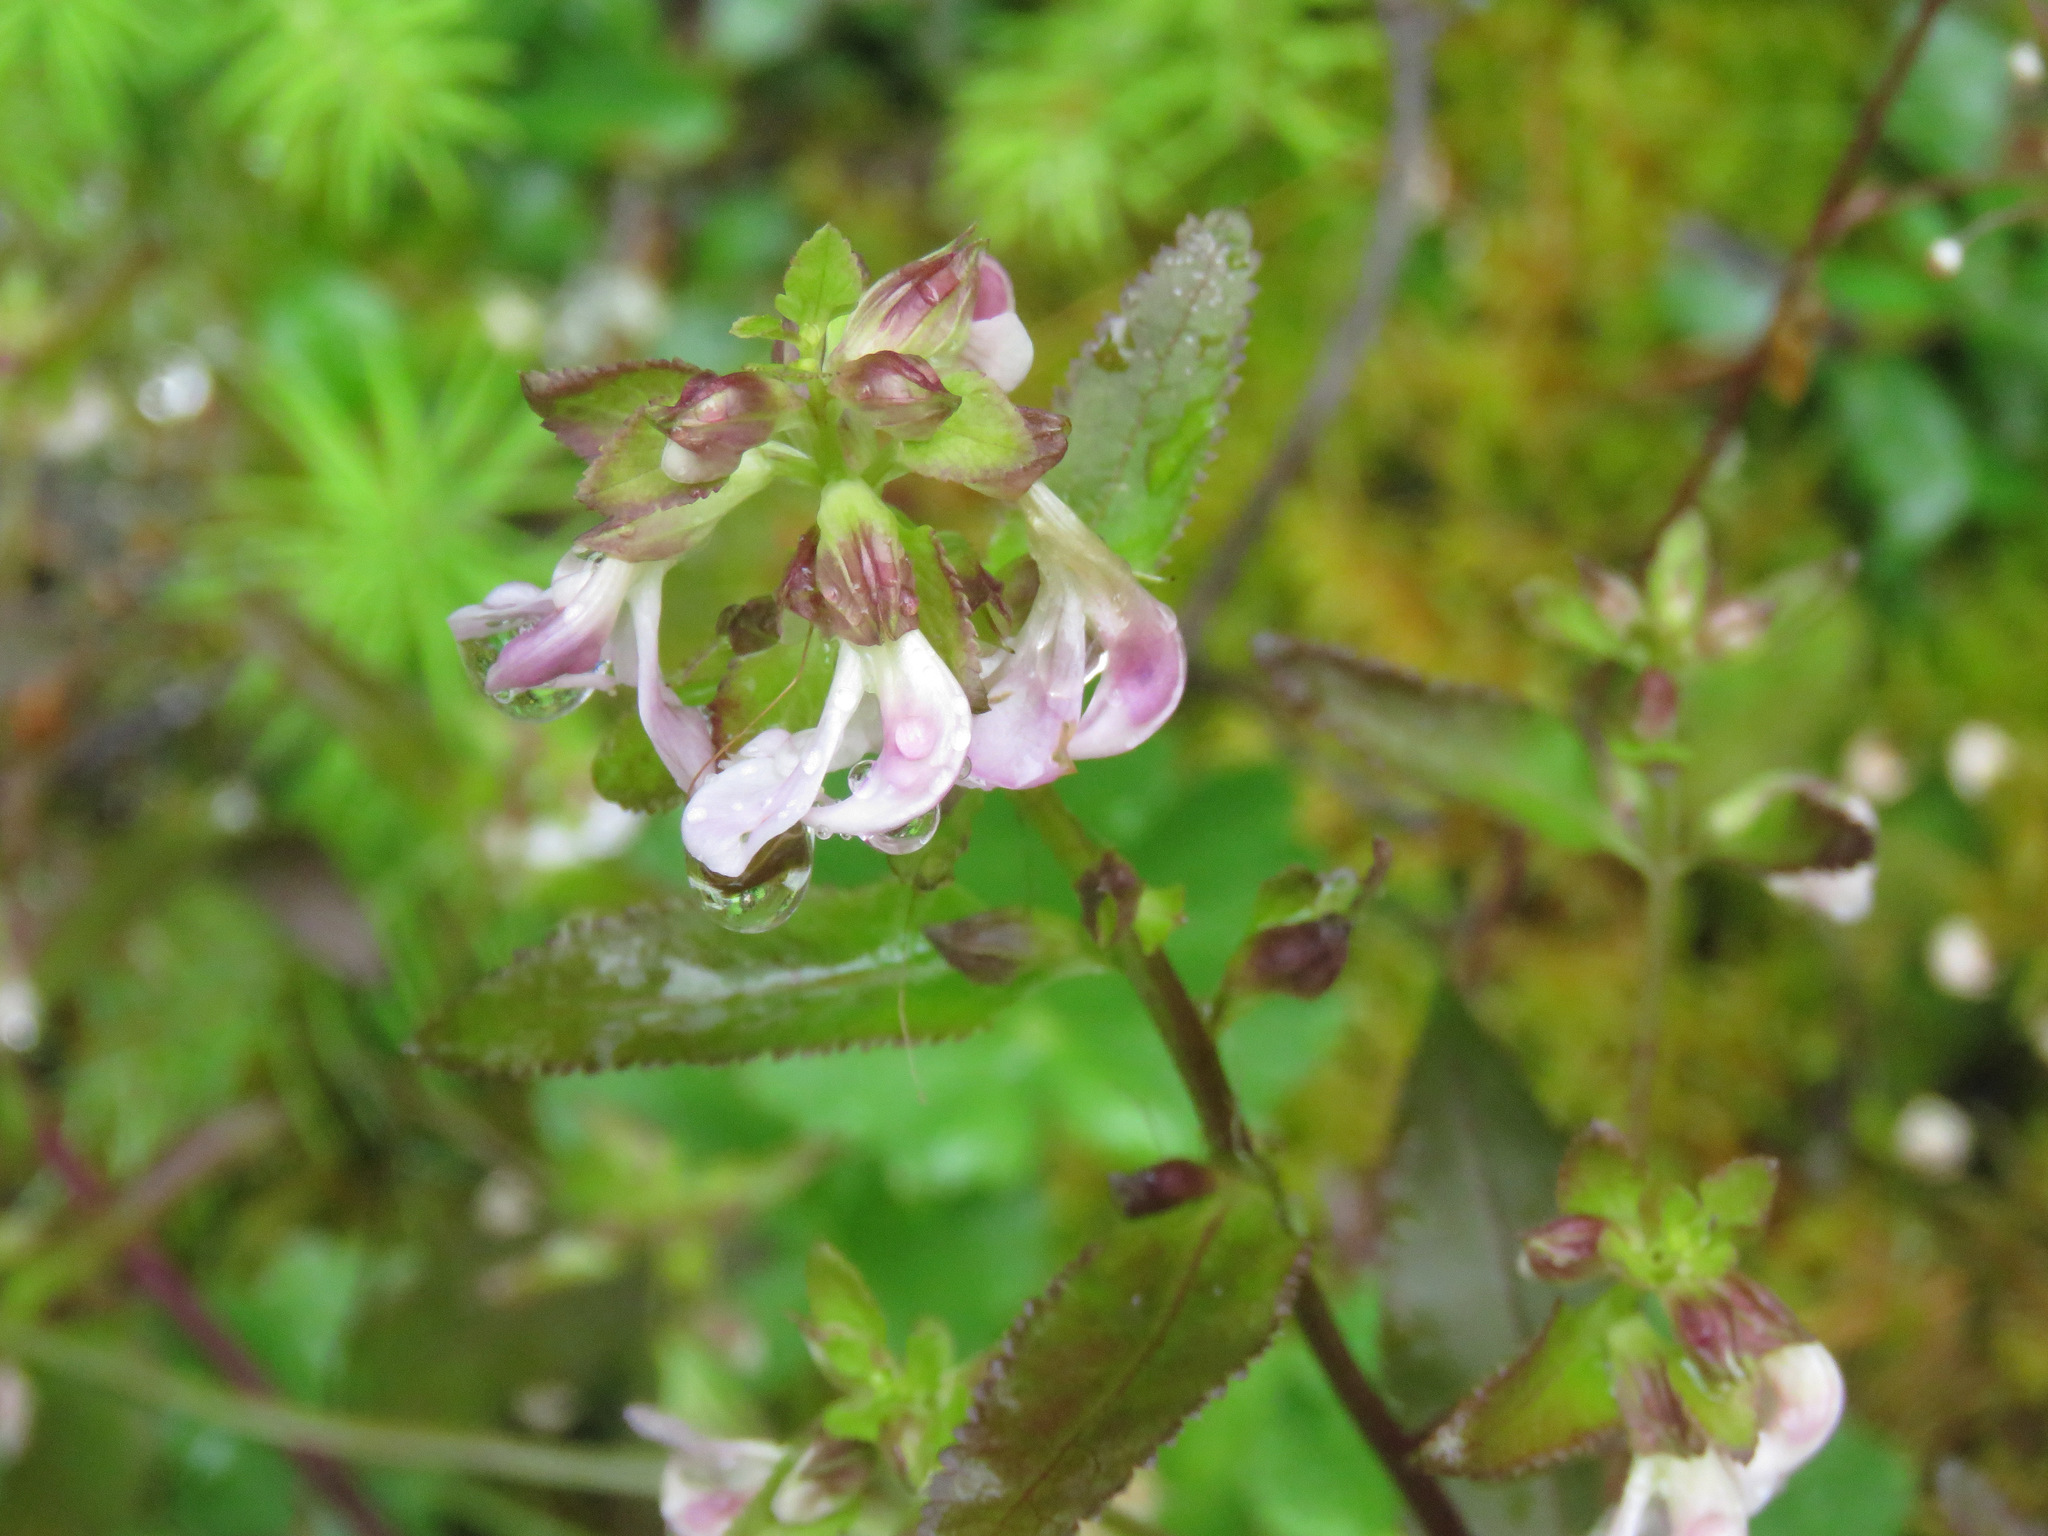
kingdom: Plantae
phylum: Tracheophyta
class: Magnoliopsida
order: Lamiales
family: Orobanchaceae
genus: Pedicularis
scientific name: Pedicularis racemosa
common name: Leafy lousewort
